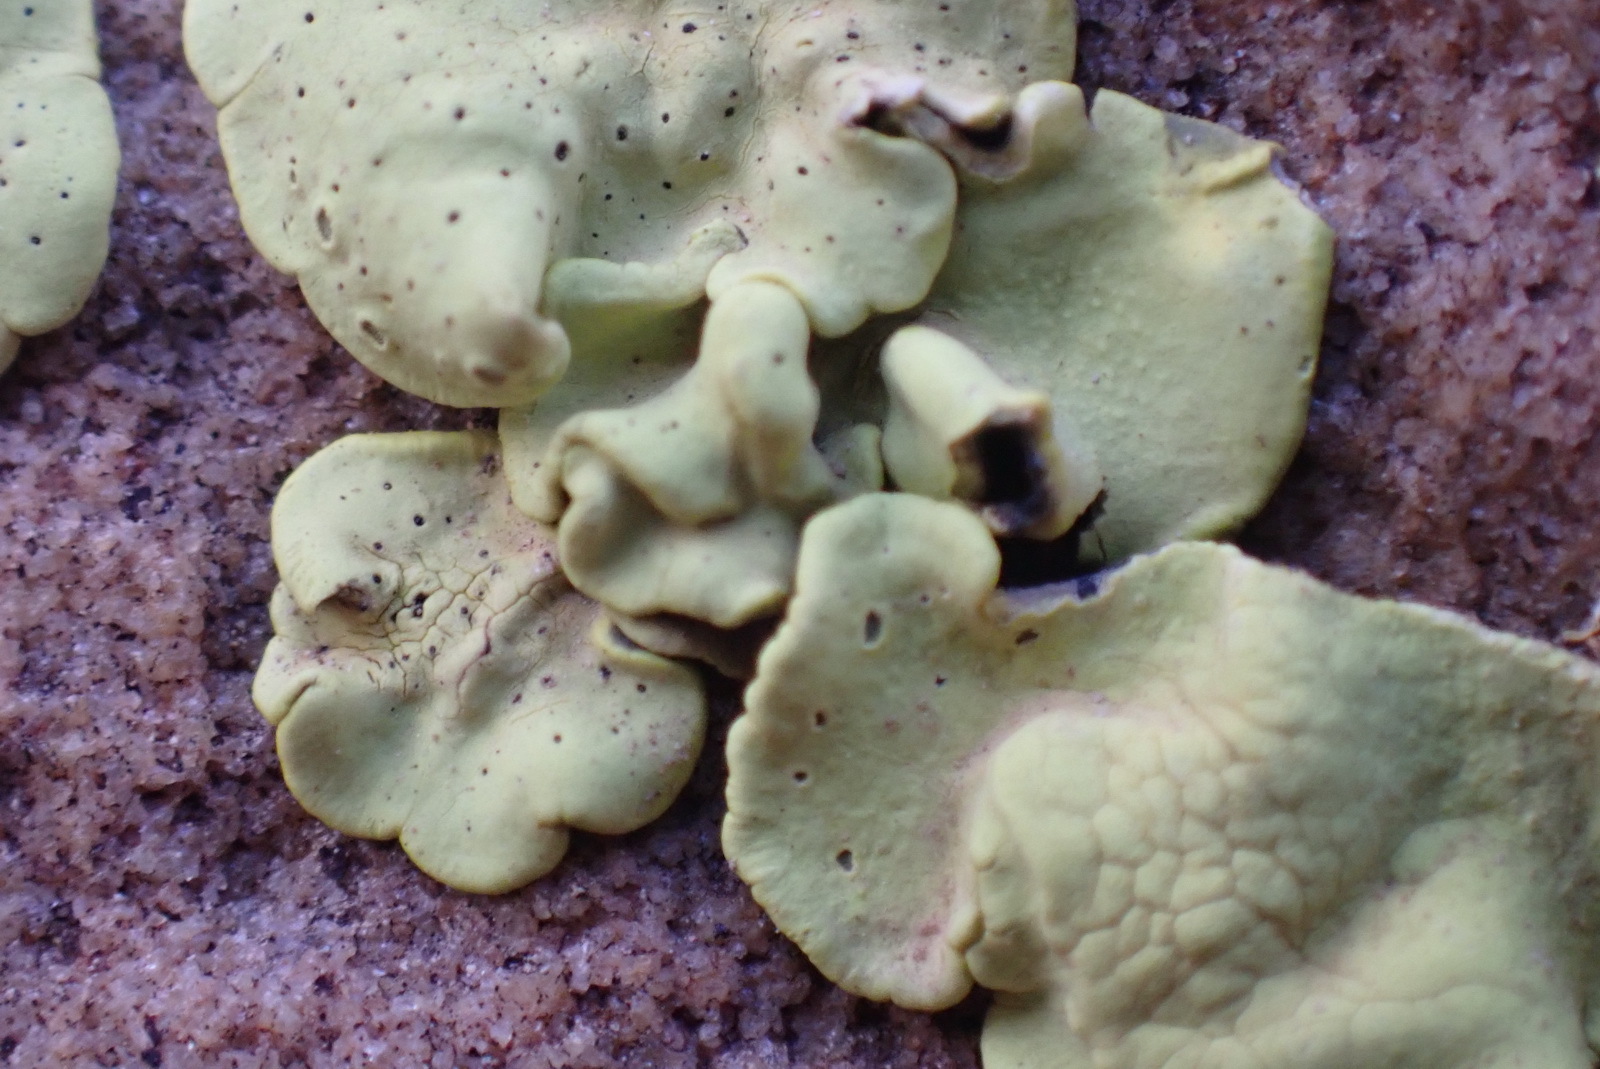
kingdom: Fungi
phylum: Ascomycota
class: Lecanoromycetes
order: Caliciales
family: Caliciaceae
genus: Dermatiscum
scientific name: Dermatiscum thunbergii
